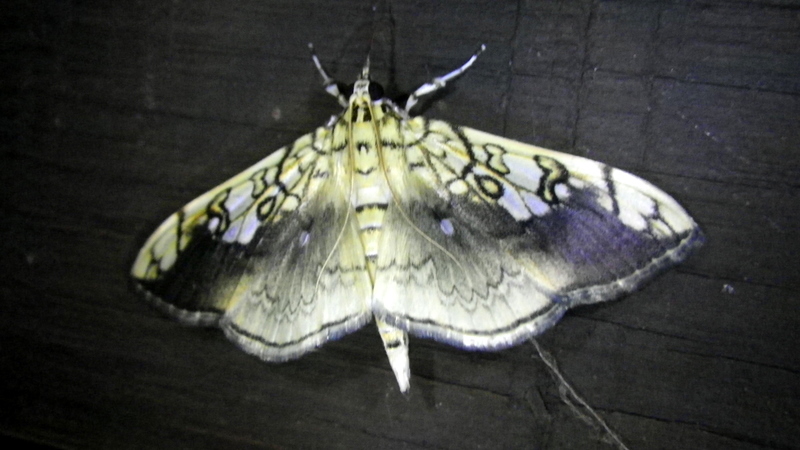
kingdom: Animalia
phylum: Arthropoda
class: Insecta
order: Lepidoptera
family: Crambidae
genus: Pantographa
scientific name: Pantographa limata
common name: Basswood leafroller moth
